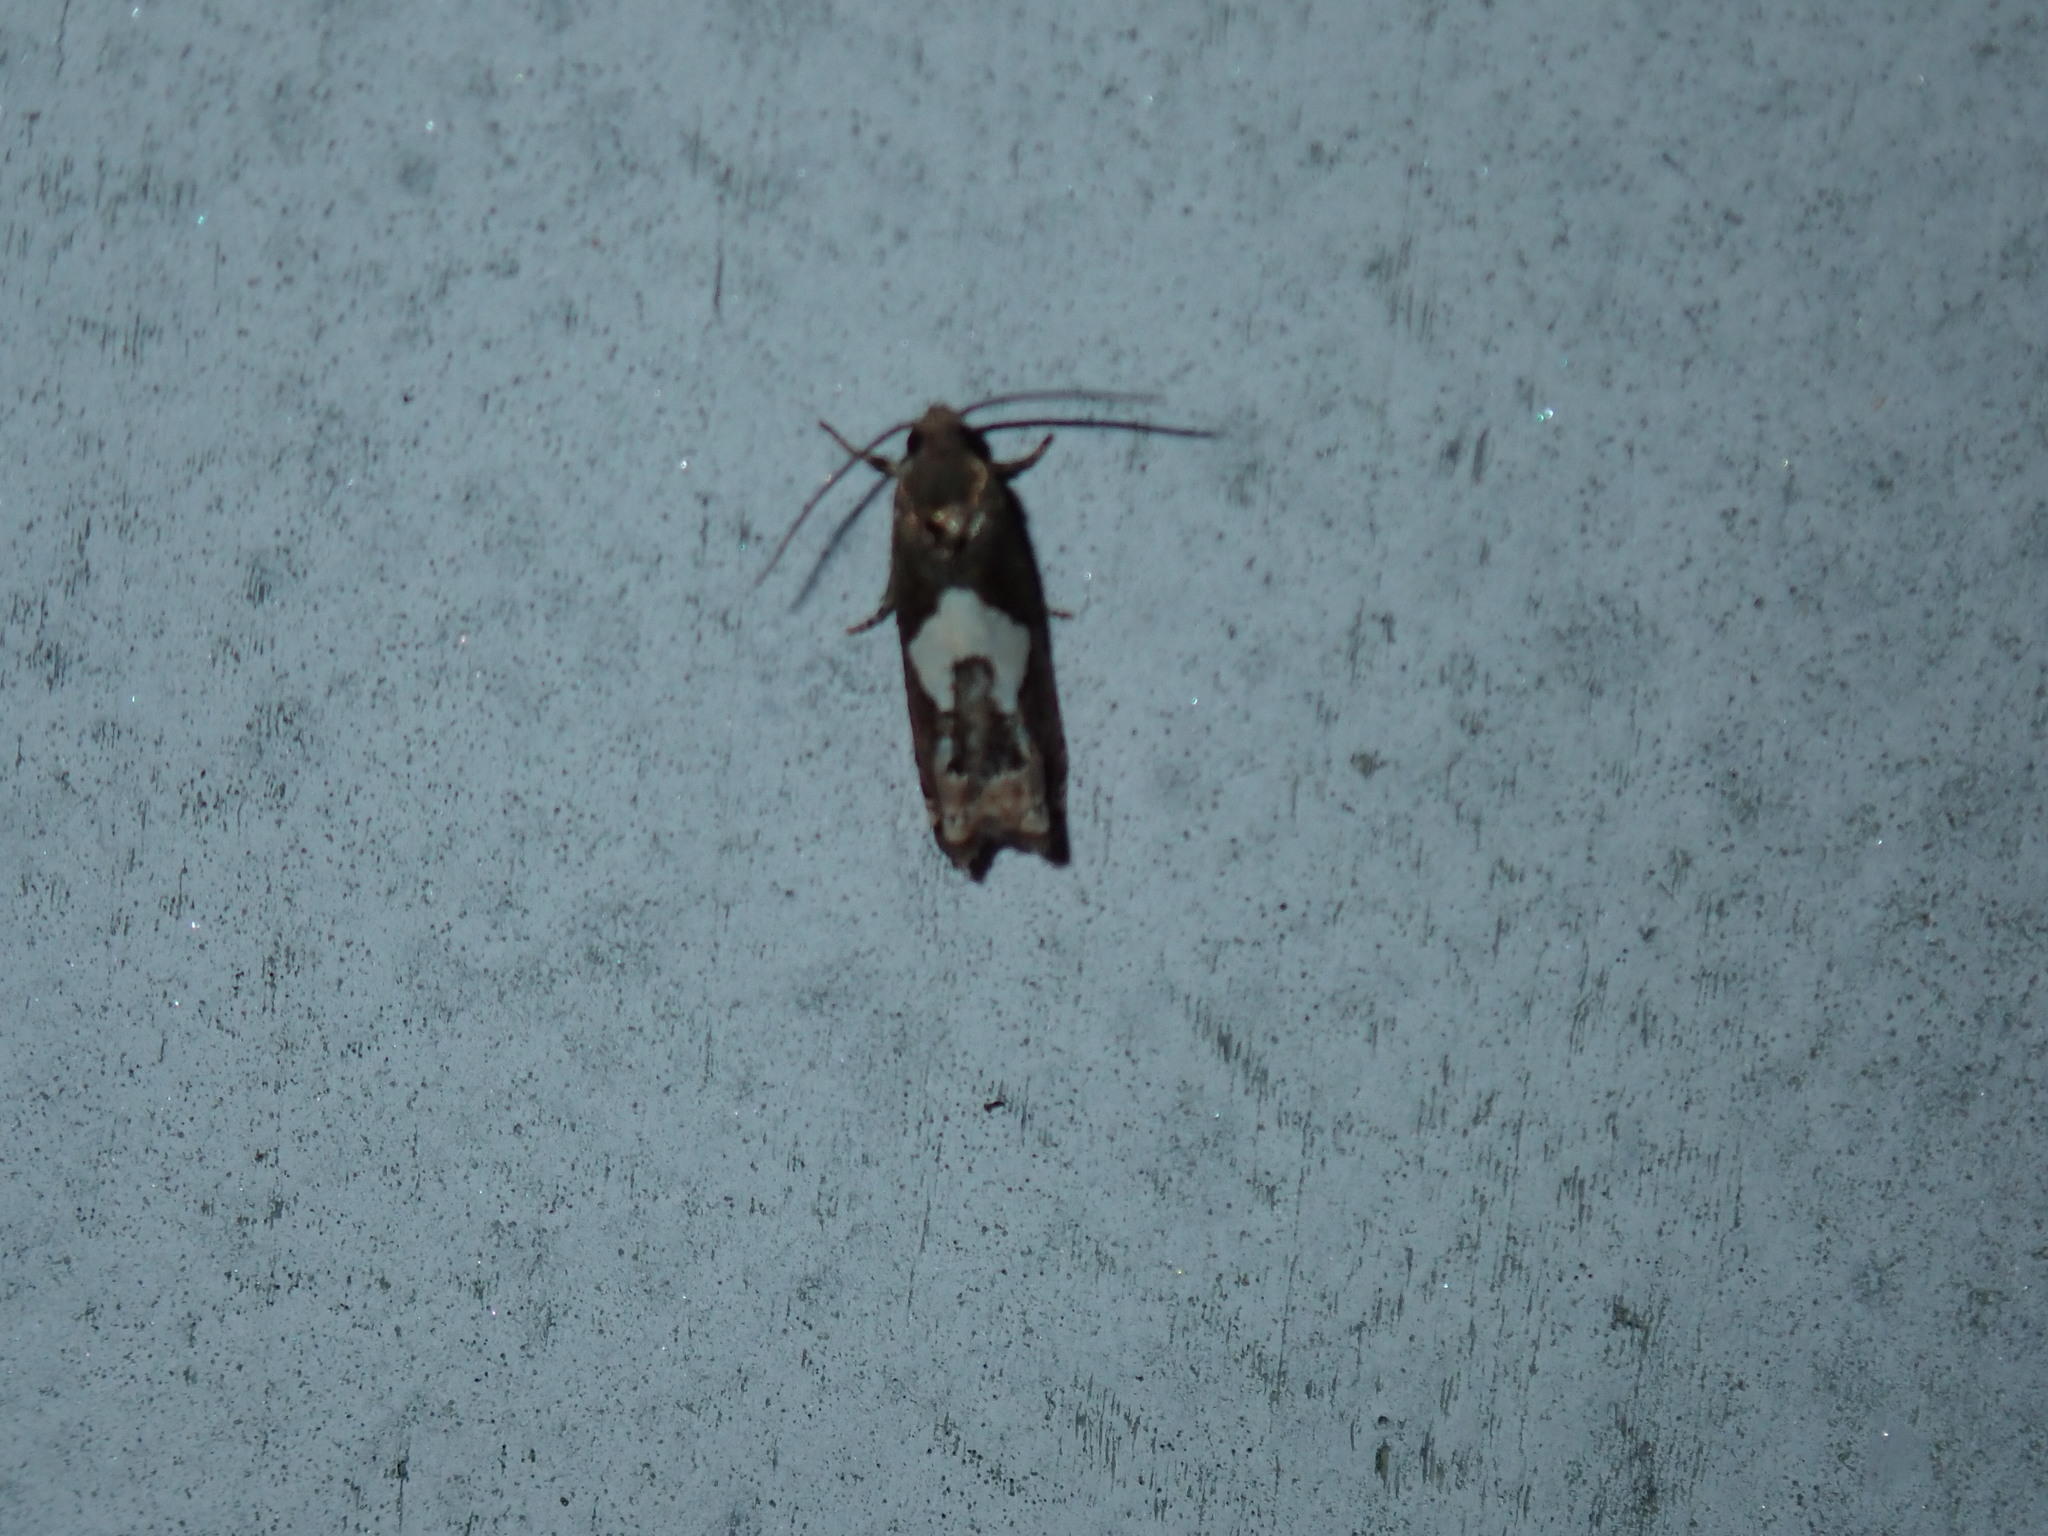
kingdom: Animalia
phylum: Arthropoda
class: Insecta
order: Lepidoptera
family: Tortricidae
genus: Epiblema
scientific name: Epiblema otiosana
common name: Bidens borer moth
